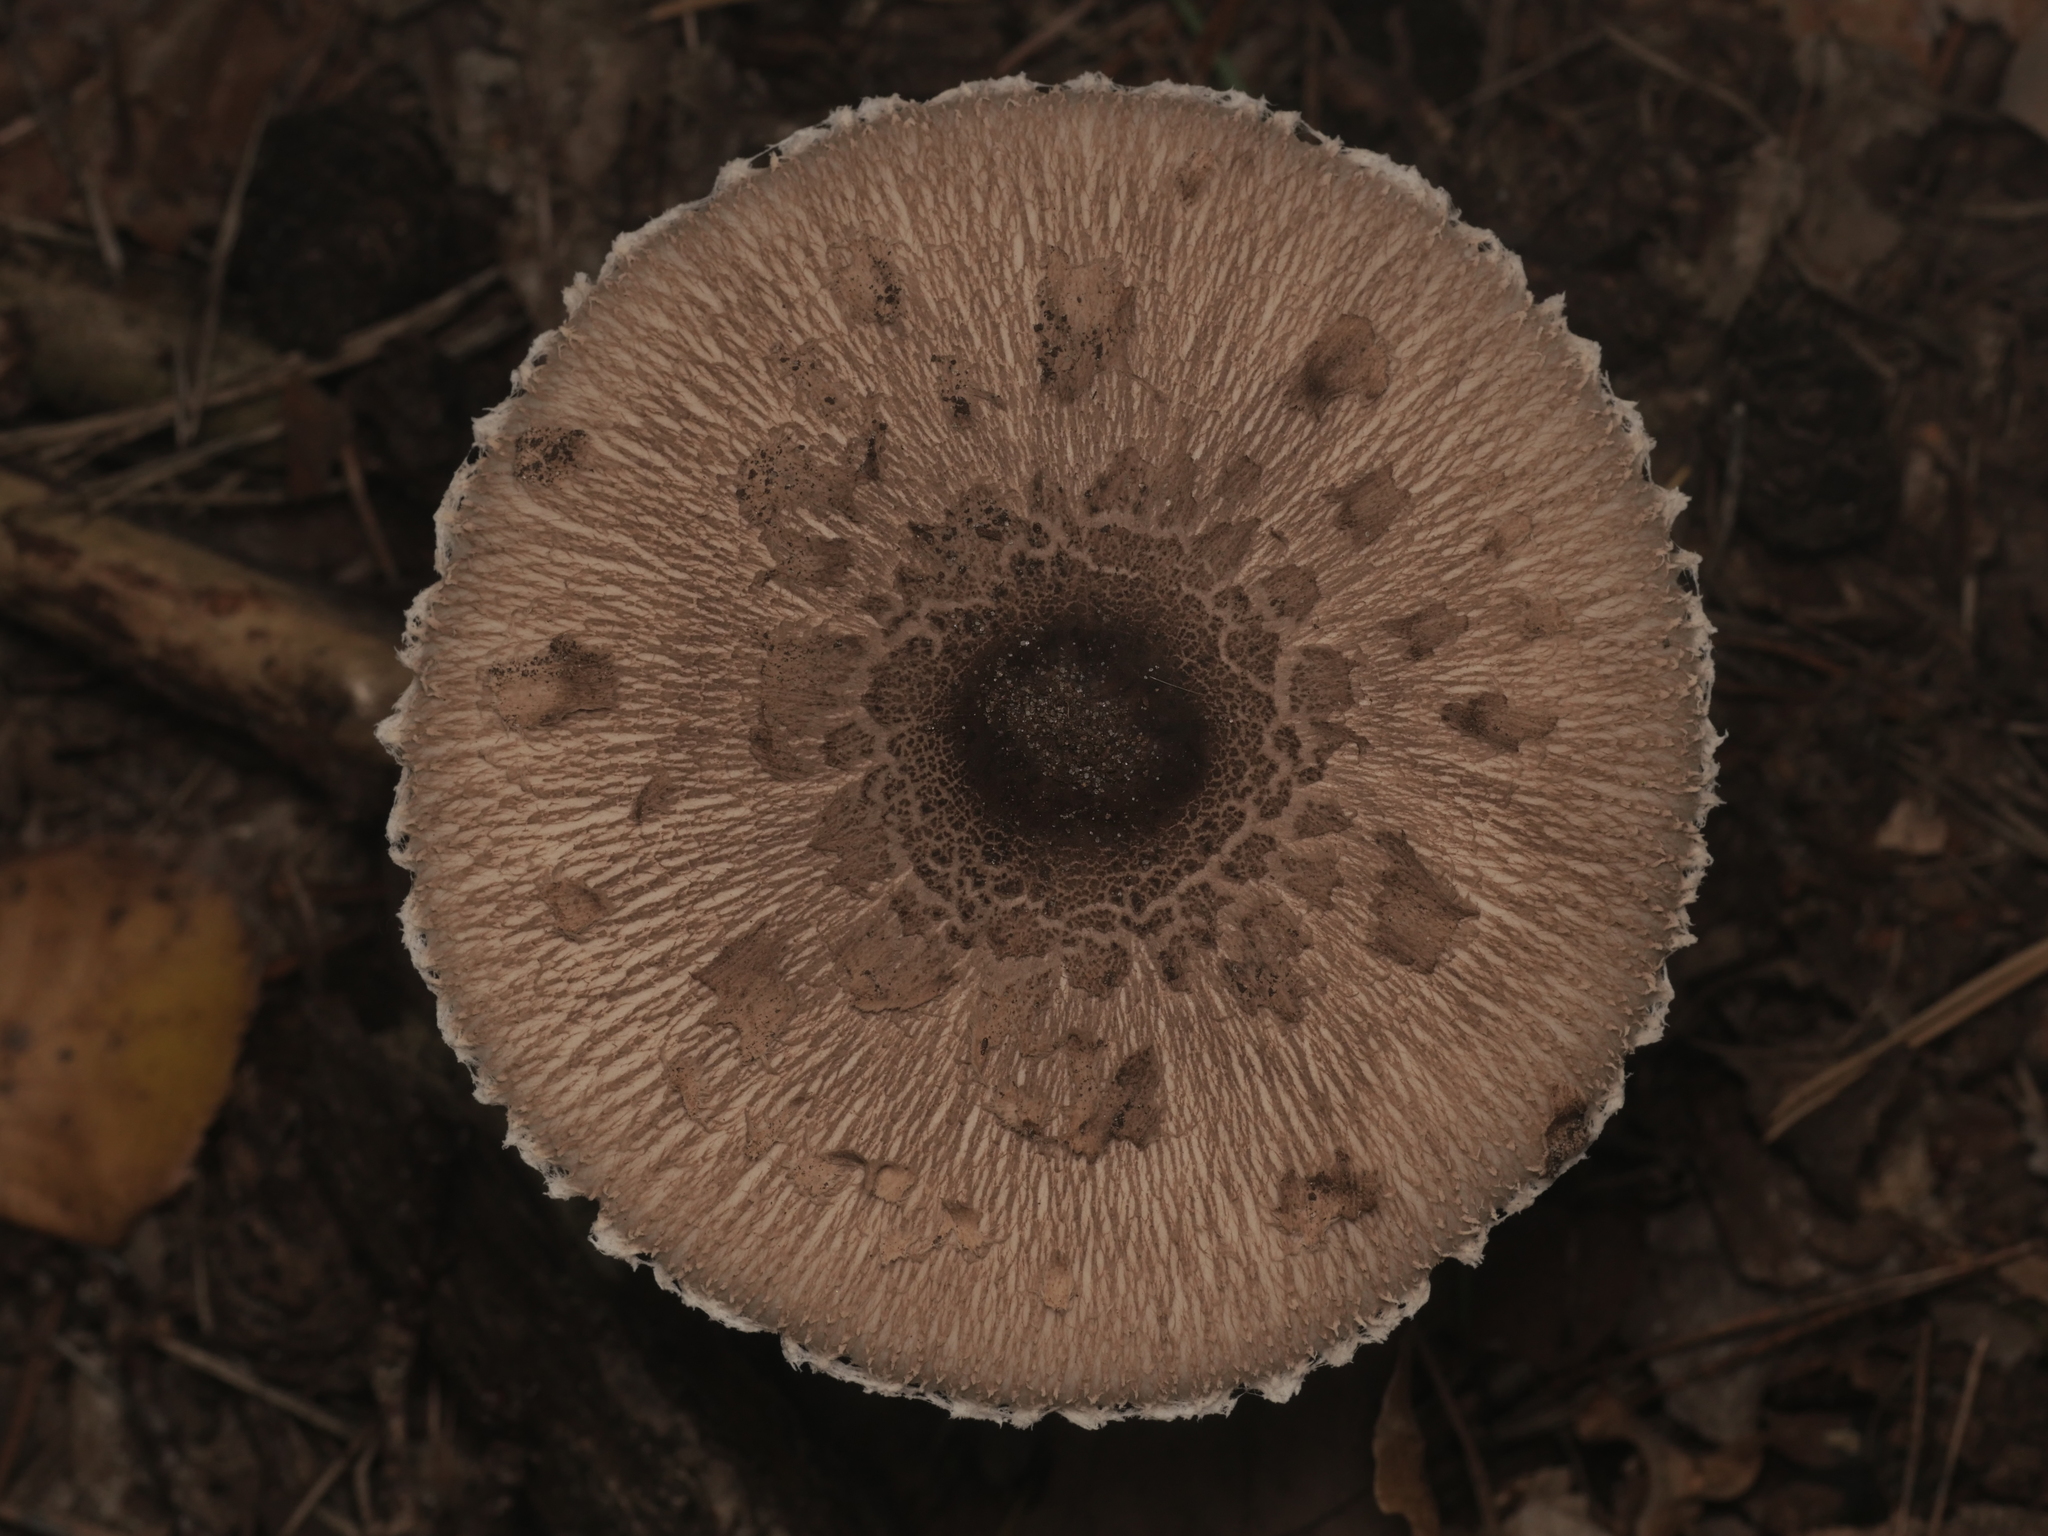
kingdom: Fungi
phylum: Basidiomycota
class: Agaricomycetes
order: Agaricales
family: Agaricaceae
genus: Macrolepiota
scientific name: Macrolepiota fuliginosa
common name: Sooty parasol
